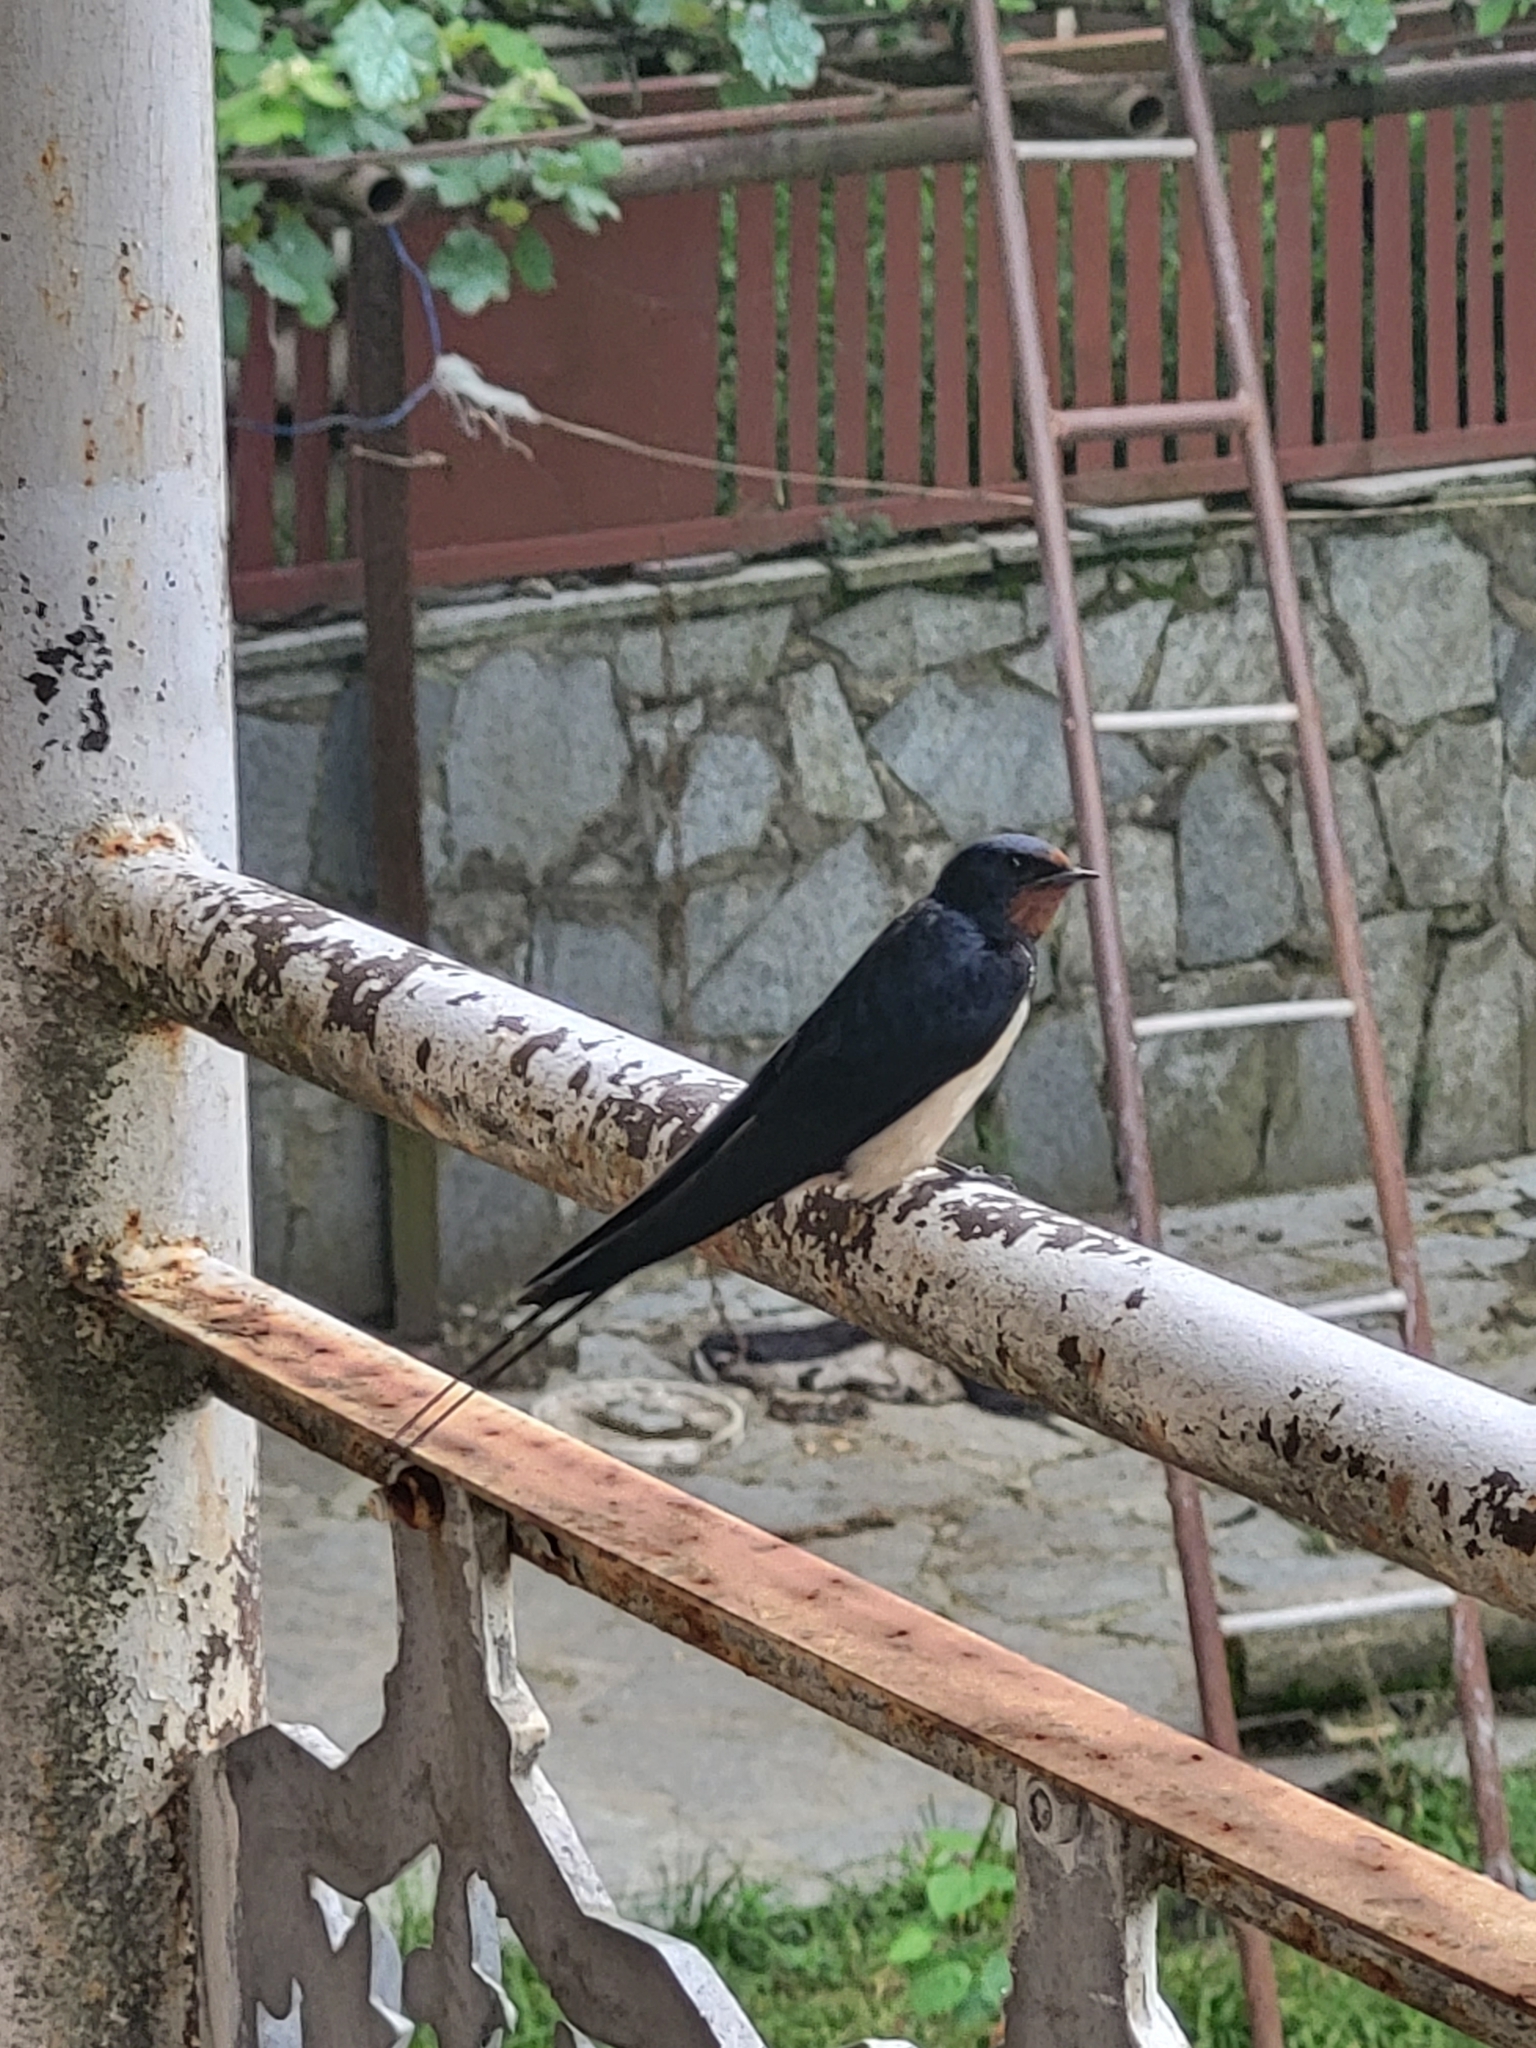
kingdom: Animalia
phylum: Chordata
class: Aves
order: Passeriformes
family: Hirundinidae
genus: Hirundo
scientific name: Hirundo rustica
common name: Barn swallow
